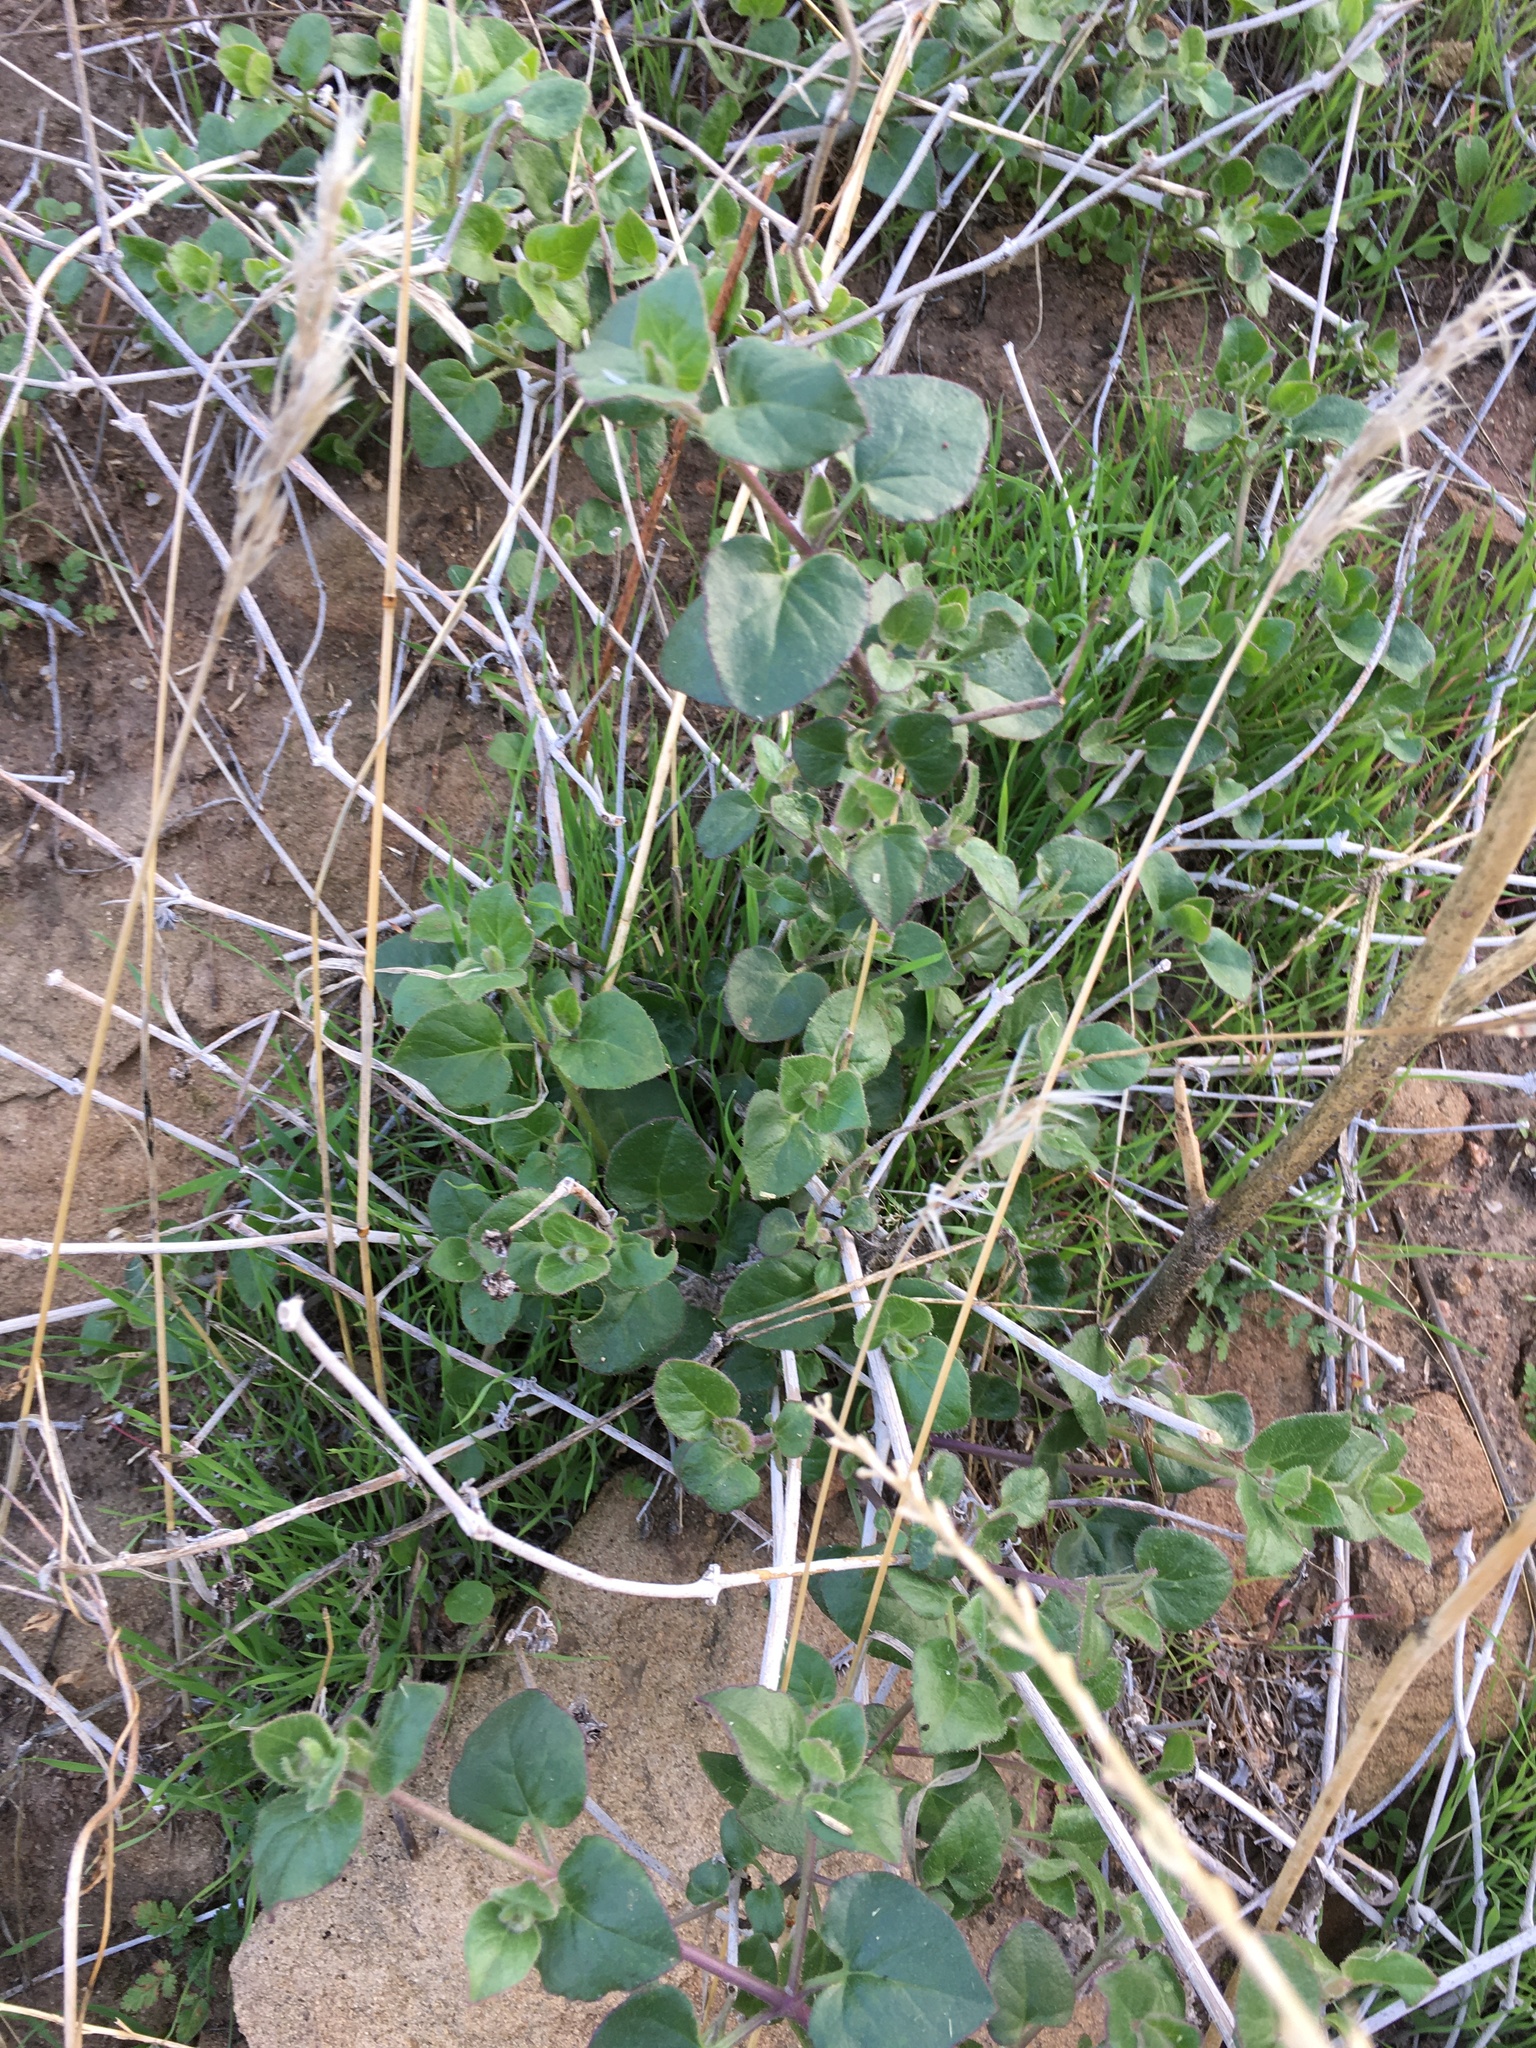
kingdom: Plantae
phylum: Tracheophyta
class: Magnoliopsida
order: Caryophyllales
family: Nyctaginaceae
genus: Mirabilis
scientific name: Mirabilis laevis
